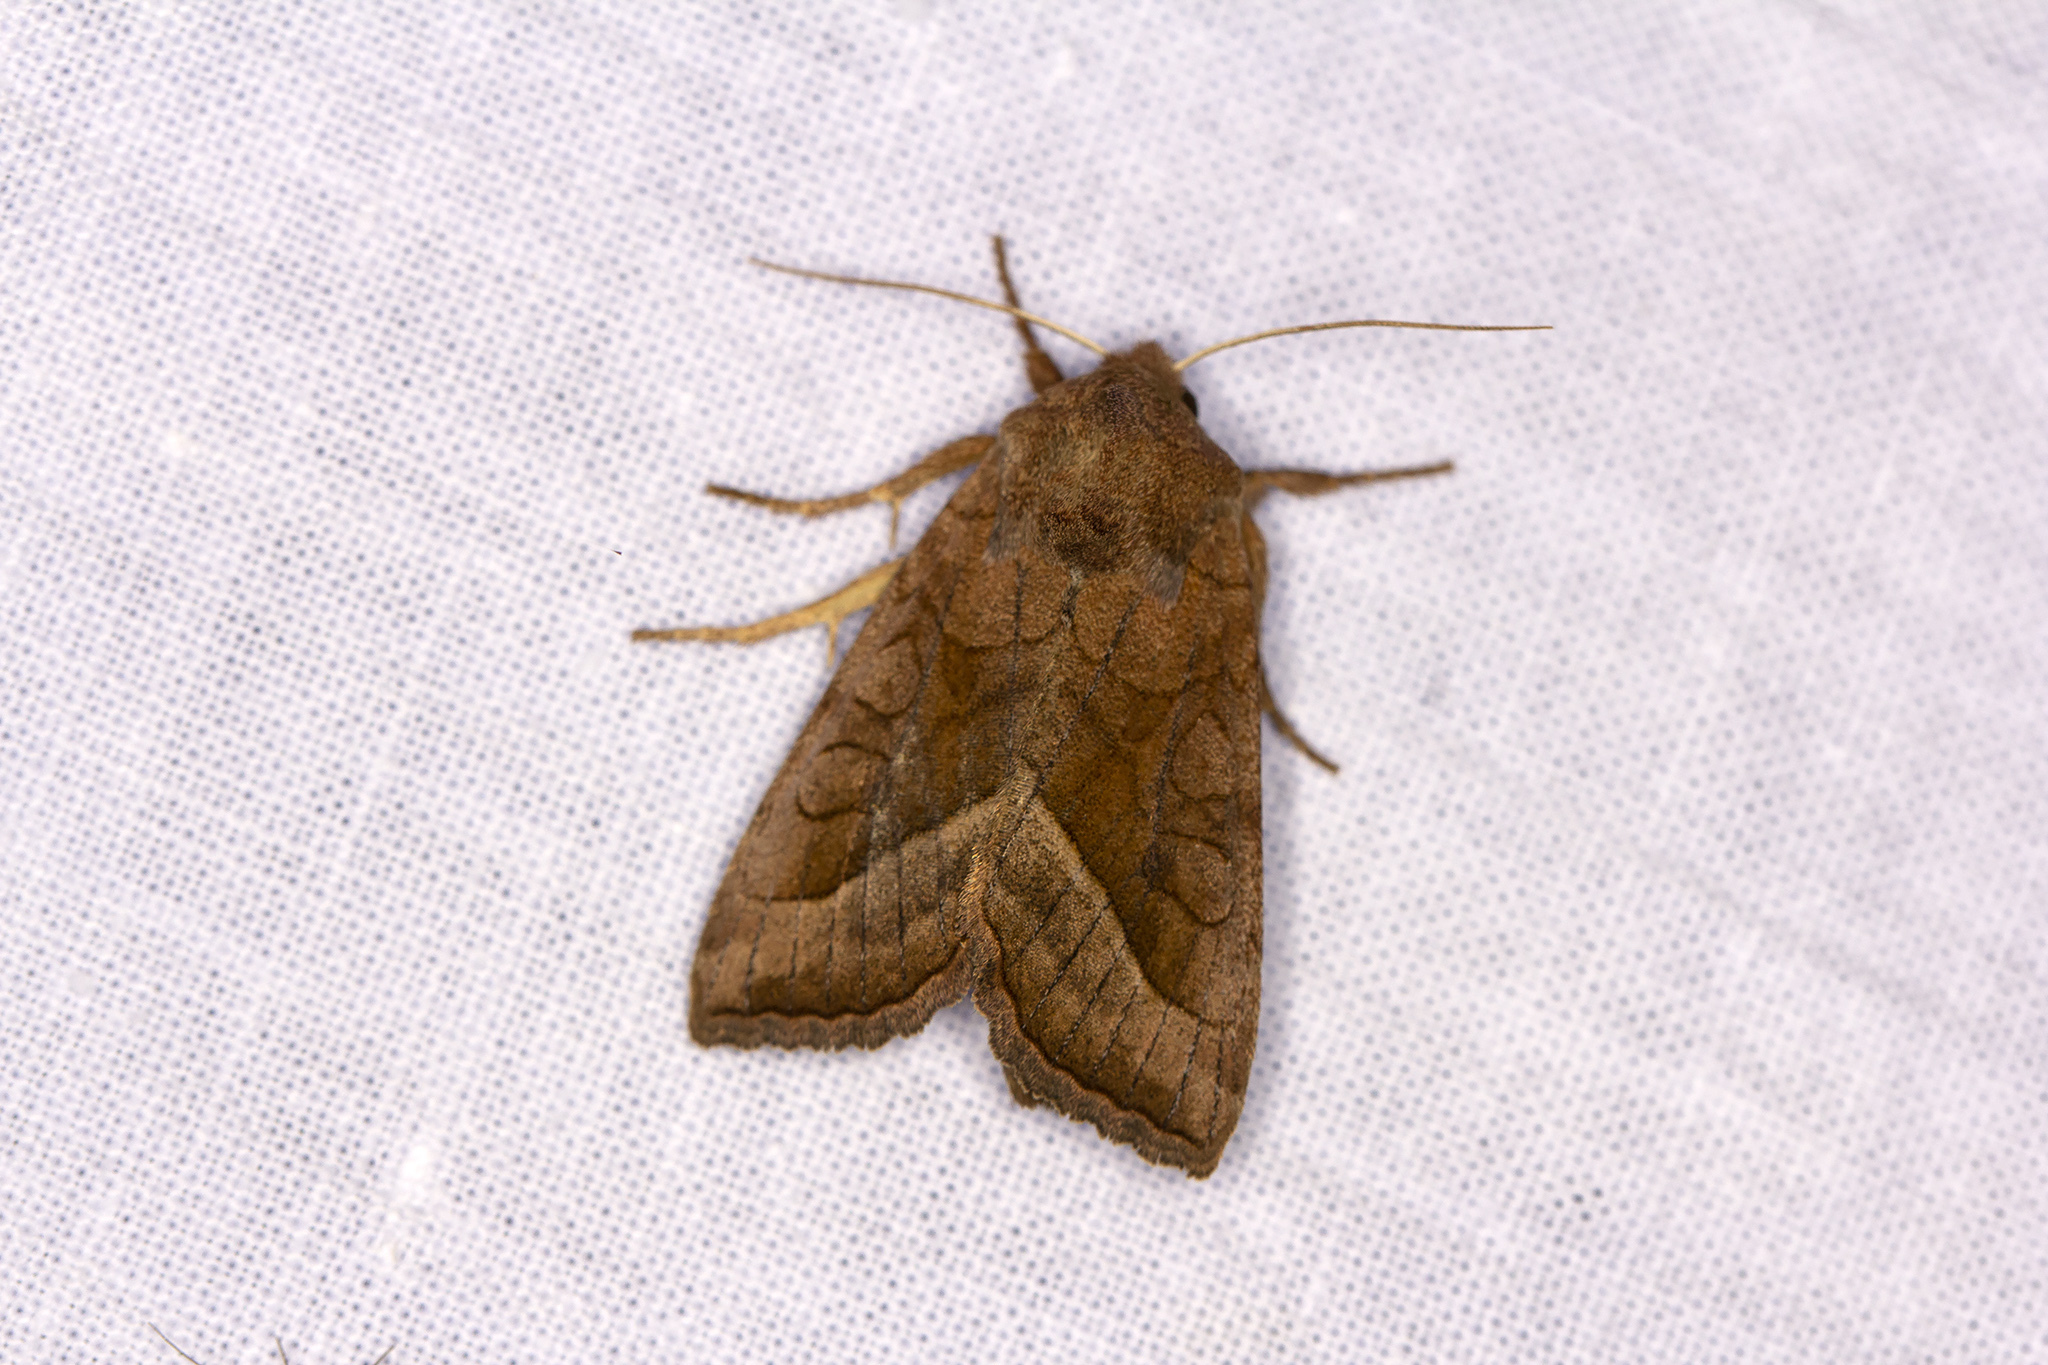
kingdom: Animalia
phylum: Arthropoda
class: Insecta
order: Lepidoptera
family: Noctuidae
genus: Hydraecia
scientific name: Hydraecia micacea
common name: Rosy rustic
